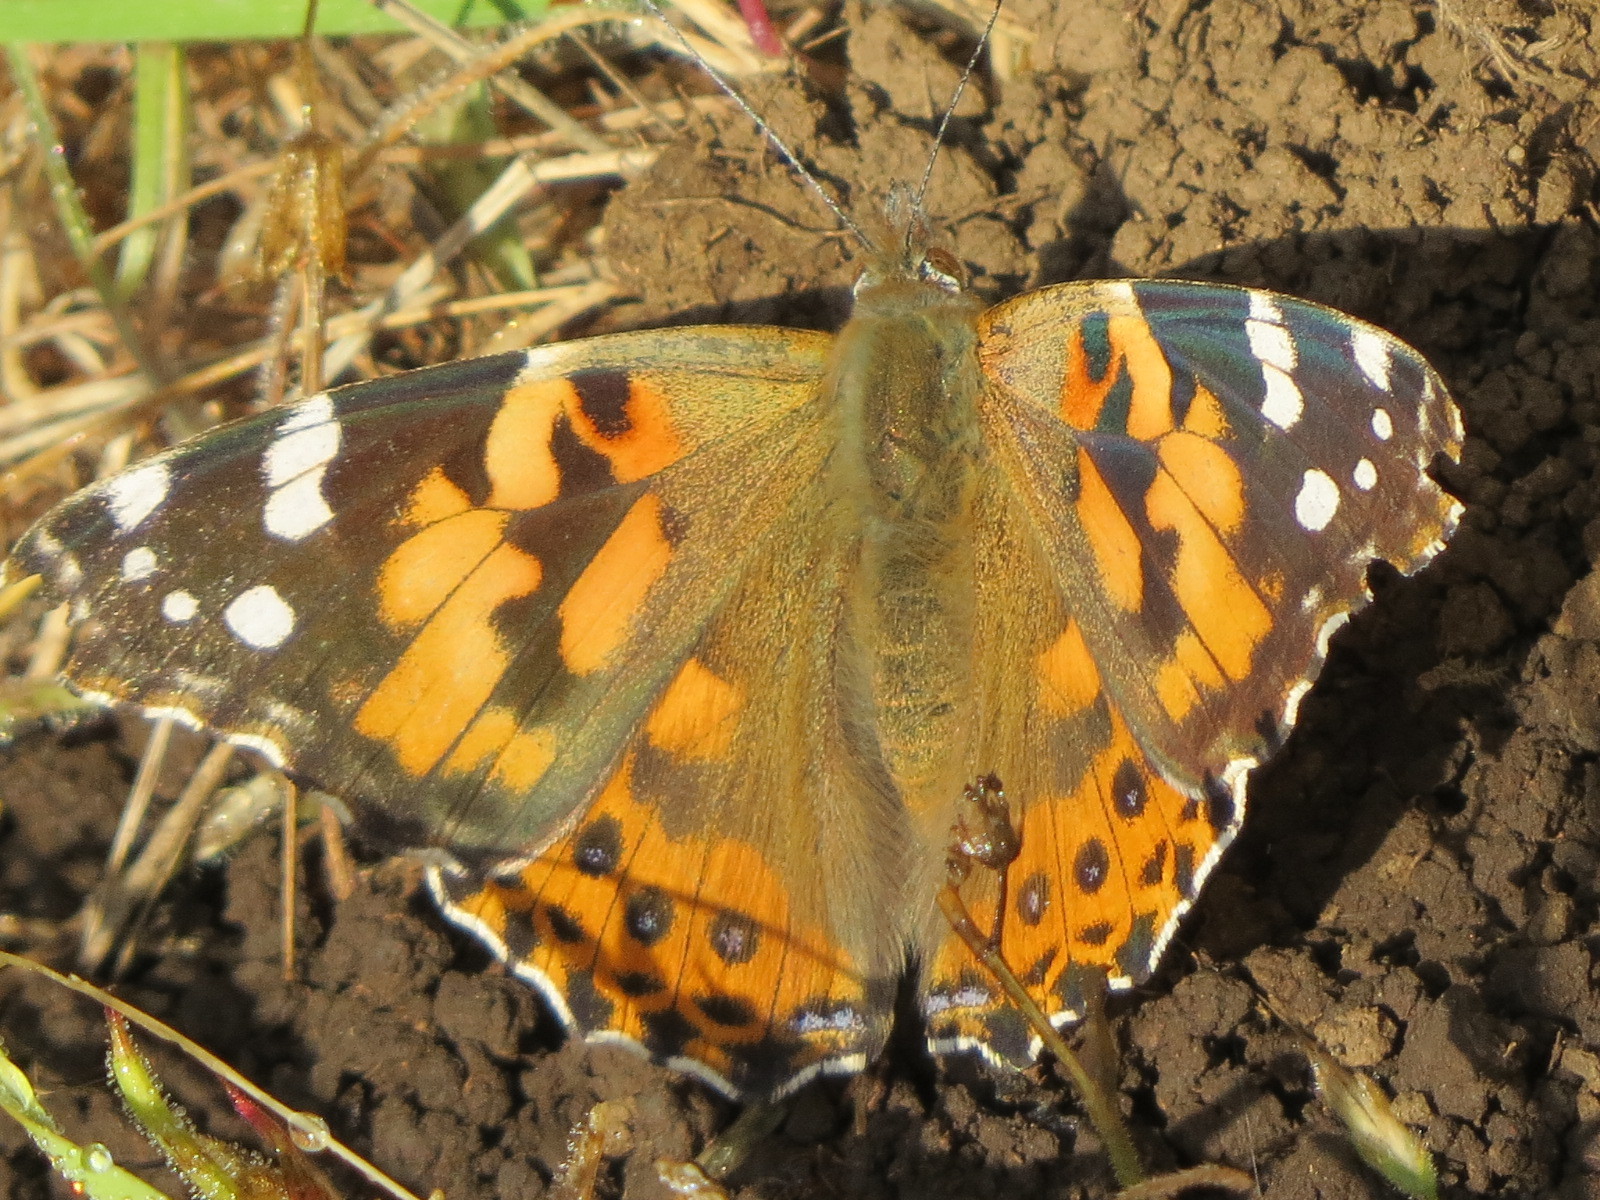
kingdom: Animalia
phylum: Arthropoda
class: Insecta
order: Lepidoptera
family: Nymphalidae
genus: Vanessa
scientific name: Vanessa cardui
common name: Painted lady
